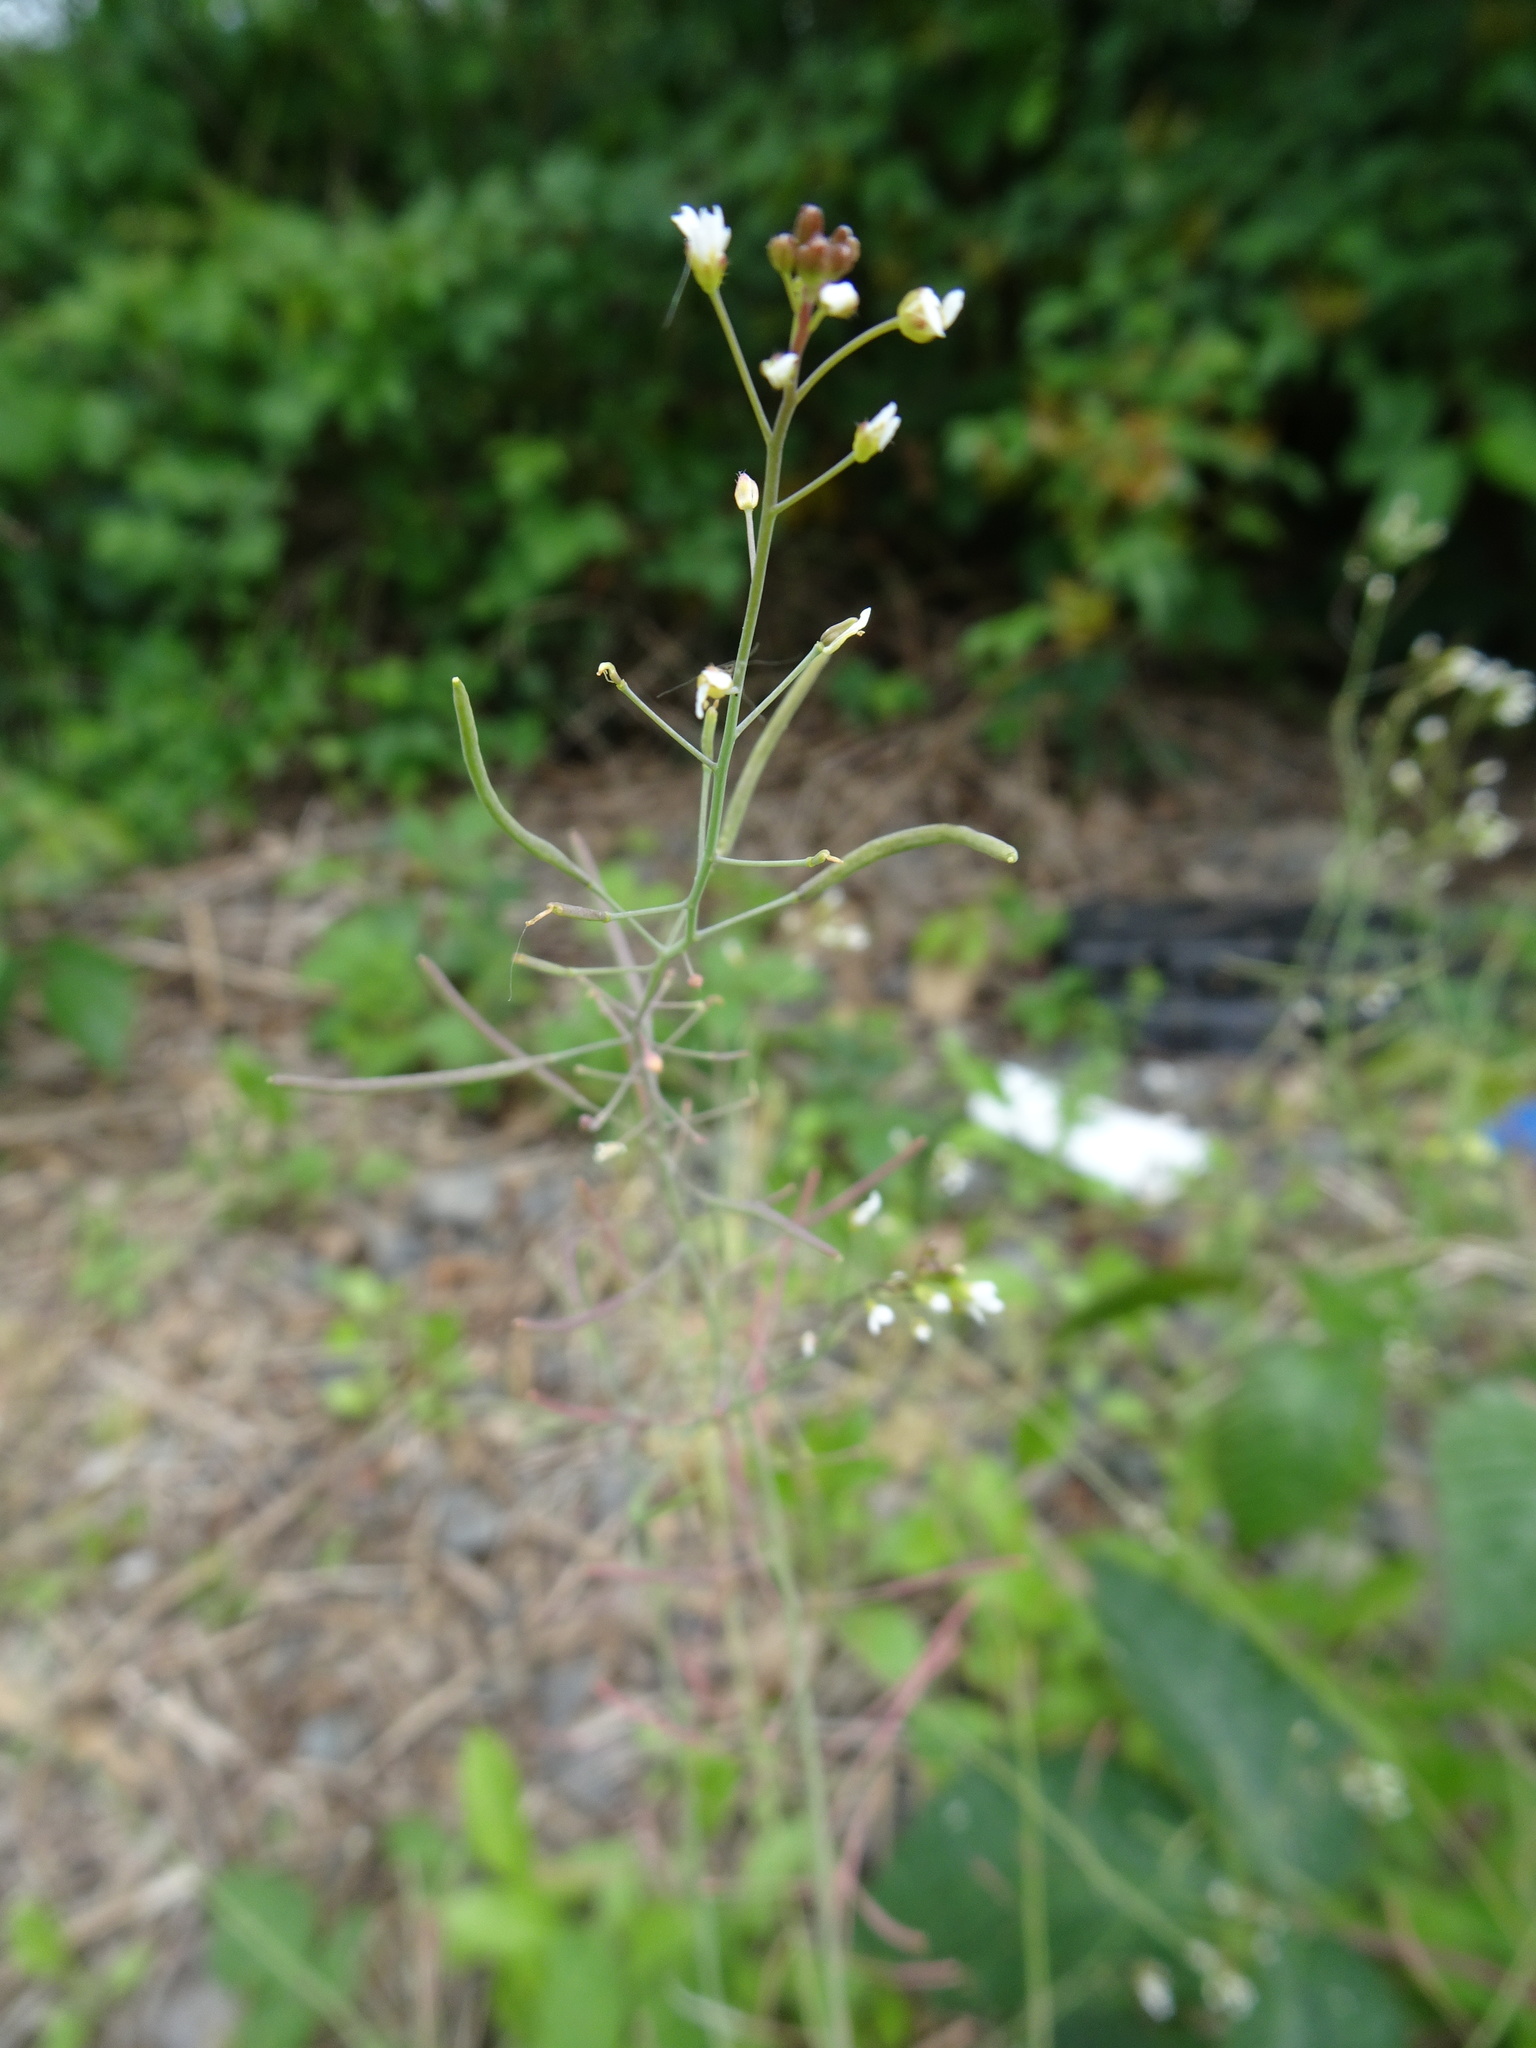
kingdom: Plantae
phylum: Tracheophyta
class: Magnoliopsida
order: Brassicales
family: Brassicaceae
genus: Arabidopsis
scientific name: Arabidopsis thaliana
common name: Thale cress
